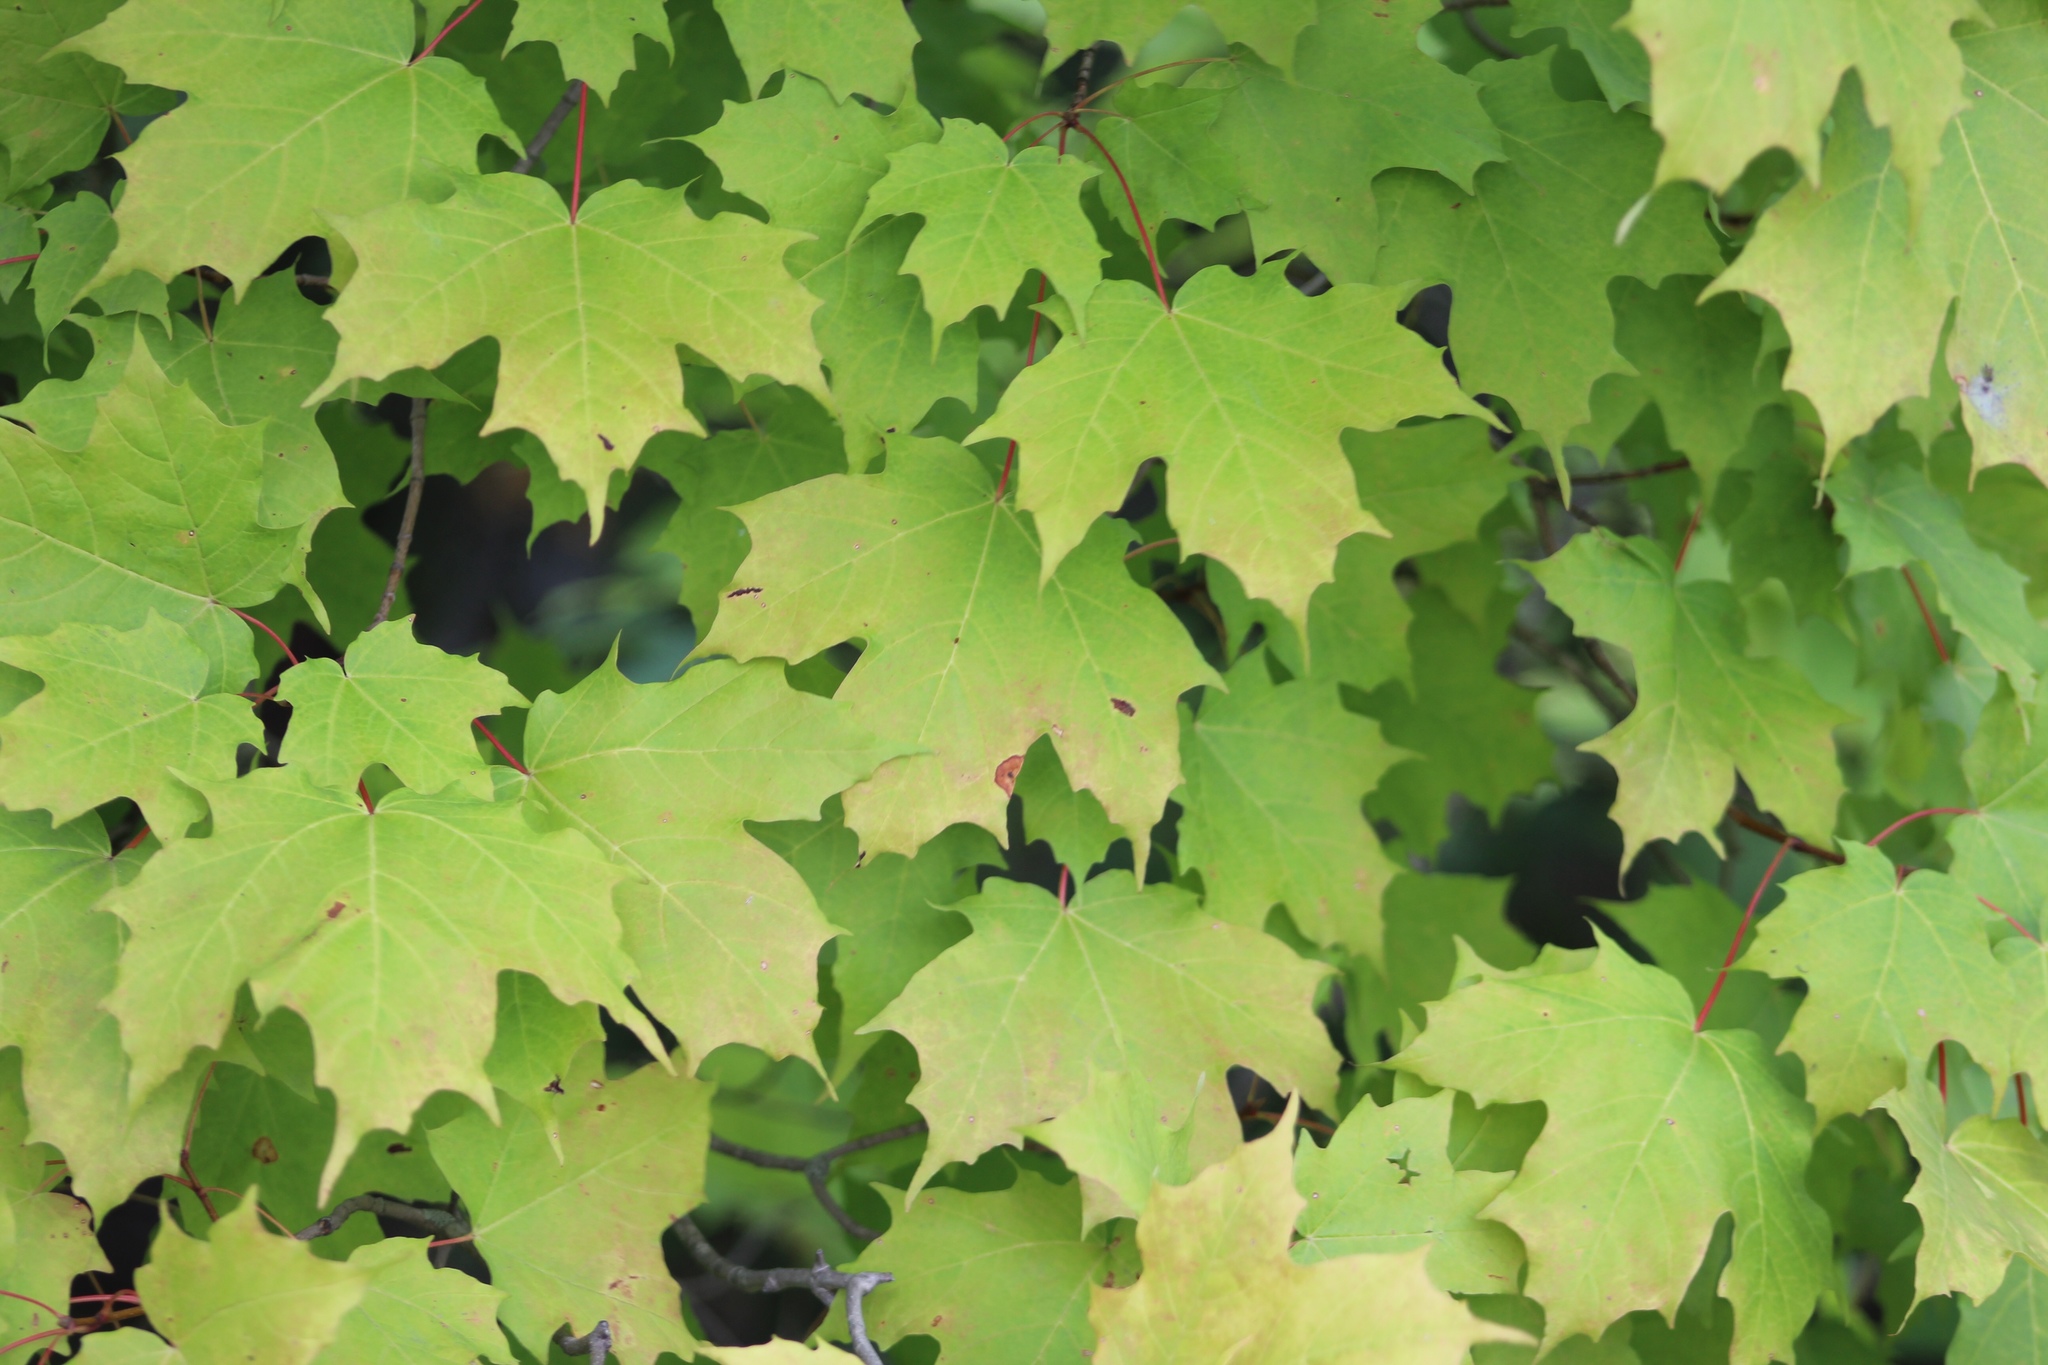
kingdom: Plantae
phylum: Tracheophyta
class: Magnoliopsida
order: Sapindales
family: Sapindaceae
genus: Acer
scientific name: Acer saccharum
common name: Sugar maple
